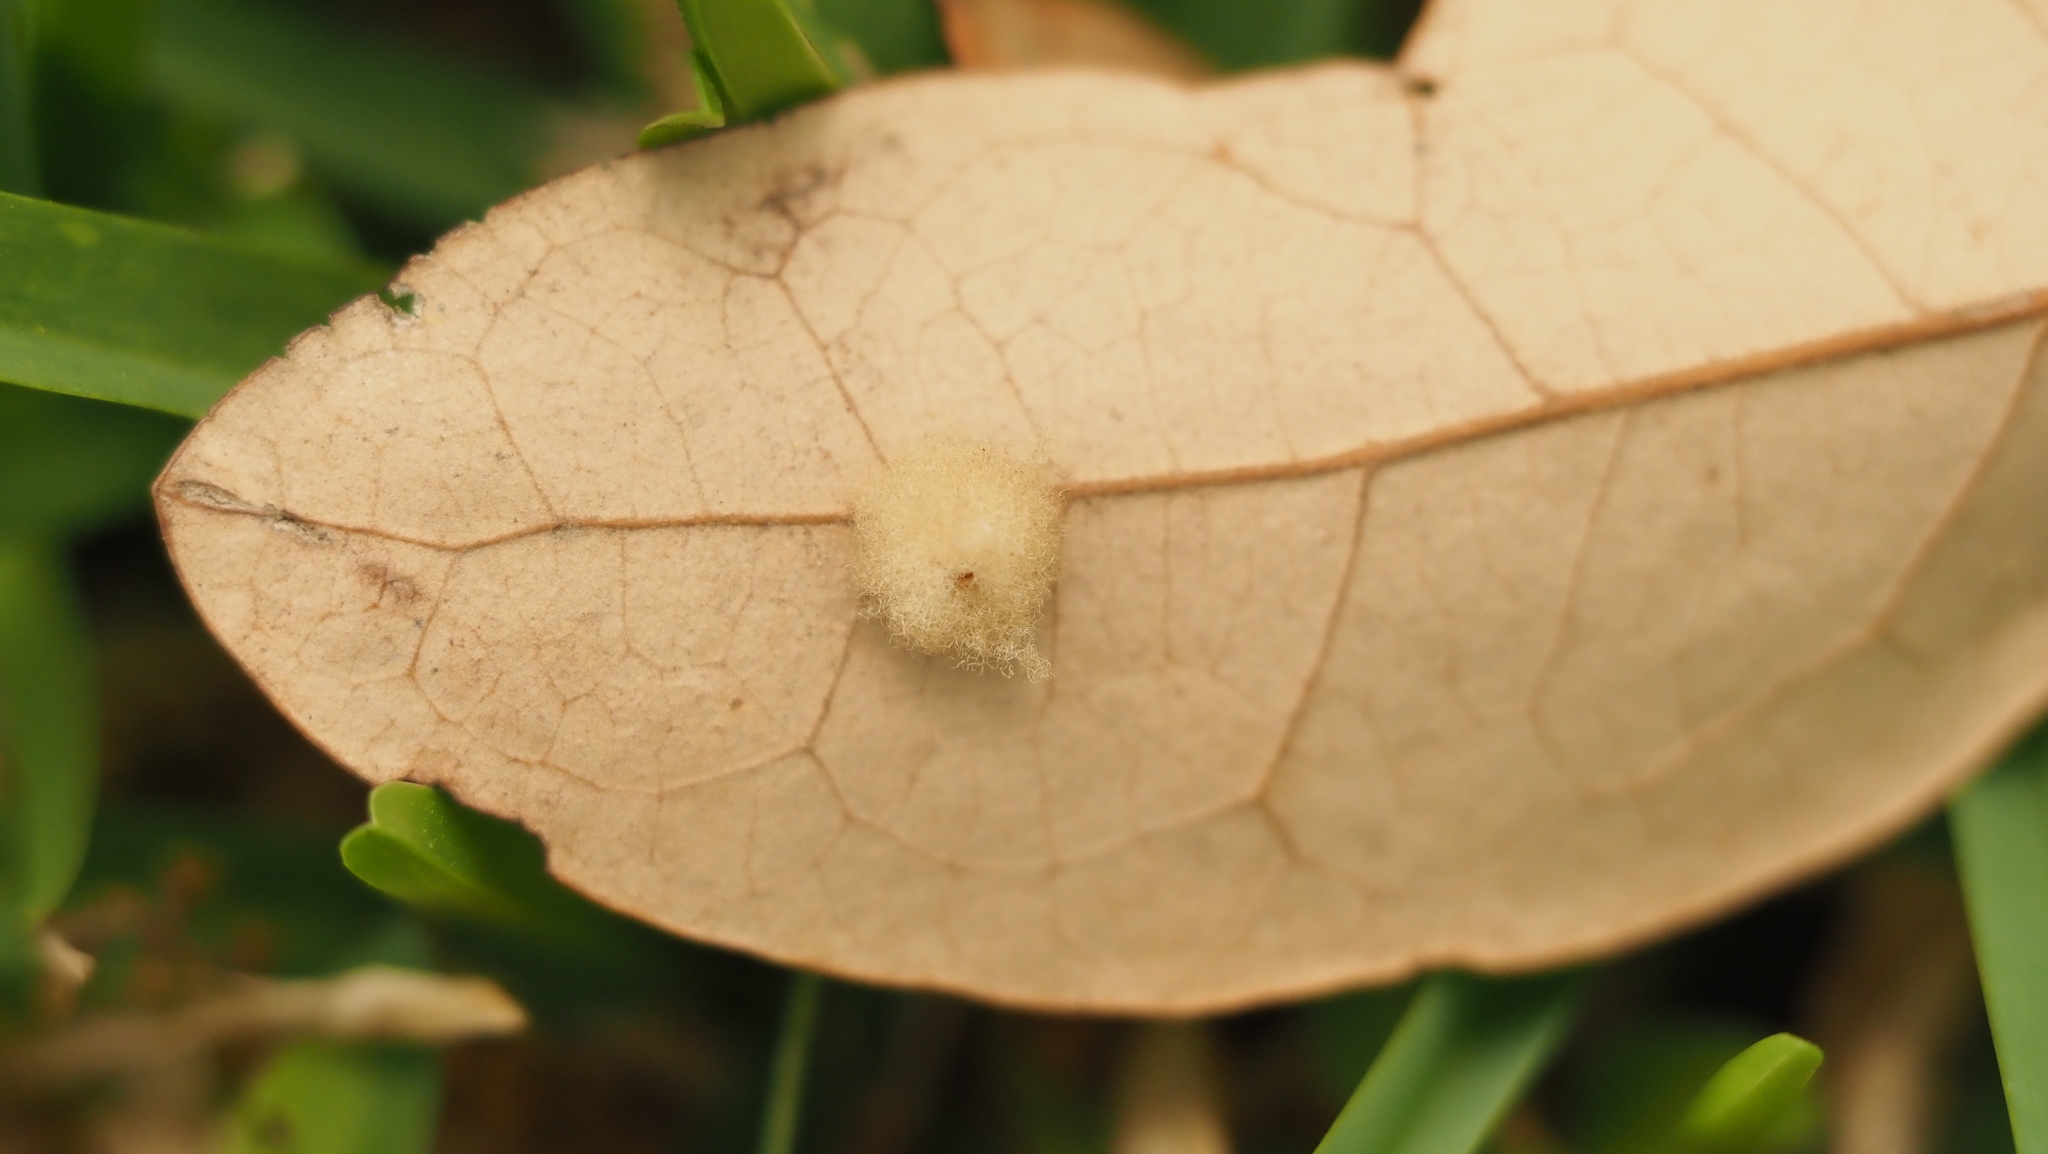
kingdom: Animalia
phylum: Arthropoda
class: Insecta
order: Hymenoptera
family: Cynipidae
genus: Andricus
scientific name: Andricus Druon quercuslanigerum
